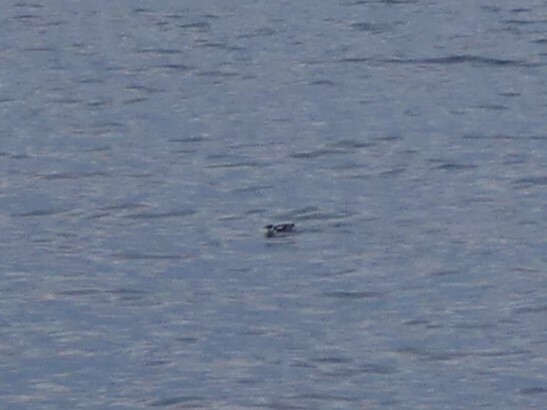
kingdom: Animalia
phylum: Chordata
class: Aves
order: Charadriiformes
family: Alcidae
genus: Brachyramphus
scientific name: Brachyramphus marmoratus
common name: Marbled murrelet
